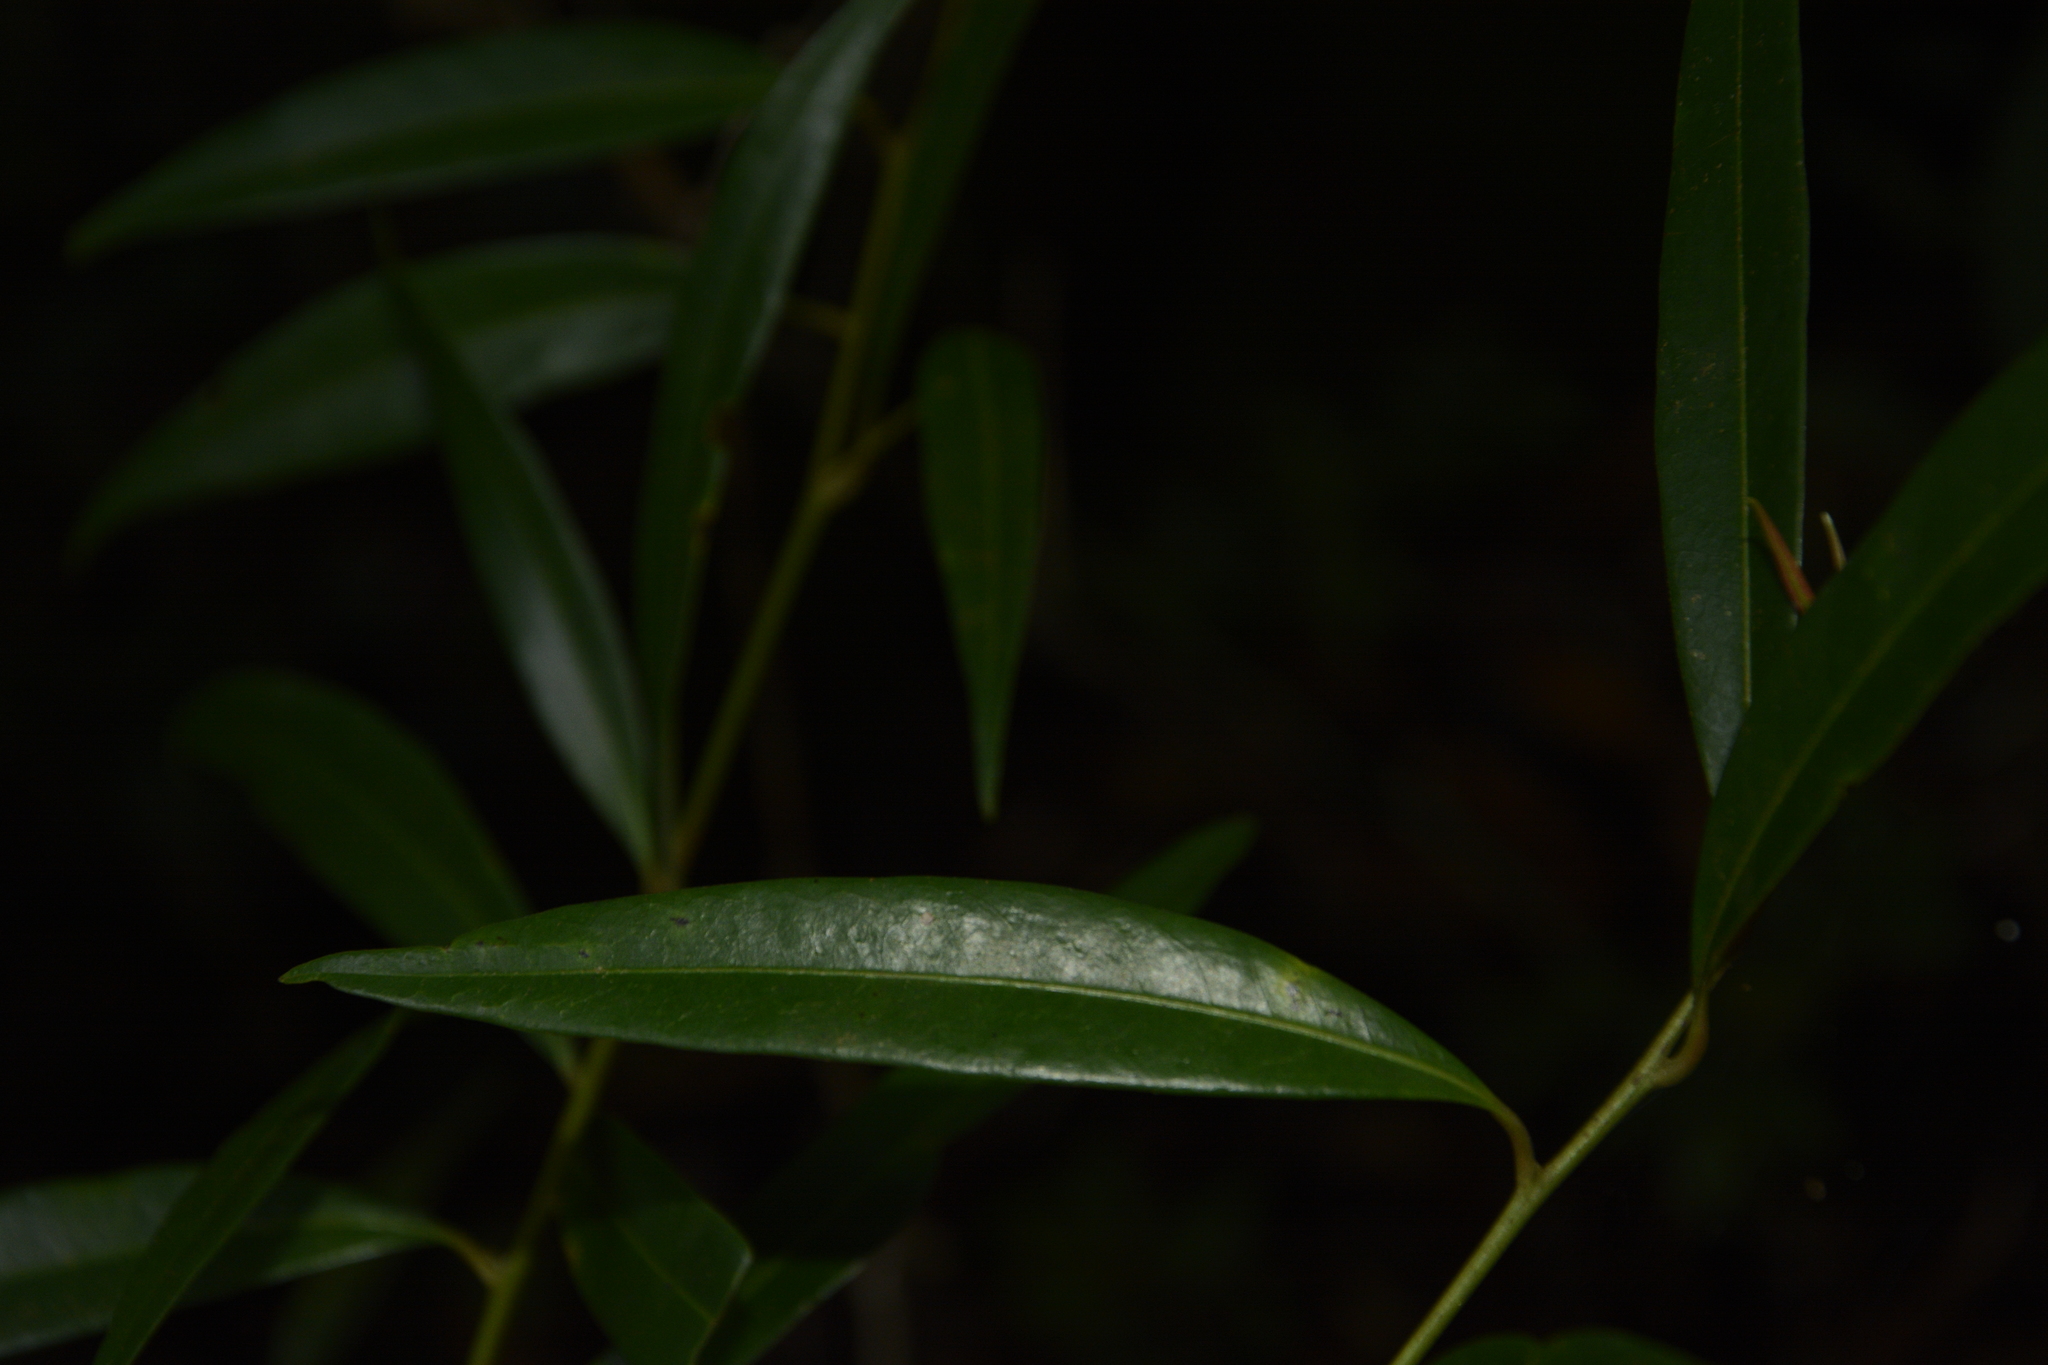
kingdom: Plantae
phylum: Tracheophyta
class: Magnoliopsida
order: Laurales
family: Lauraceae
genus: Litsea
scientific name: Litsea udayanii
